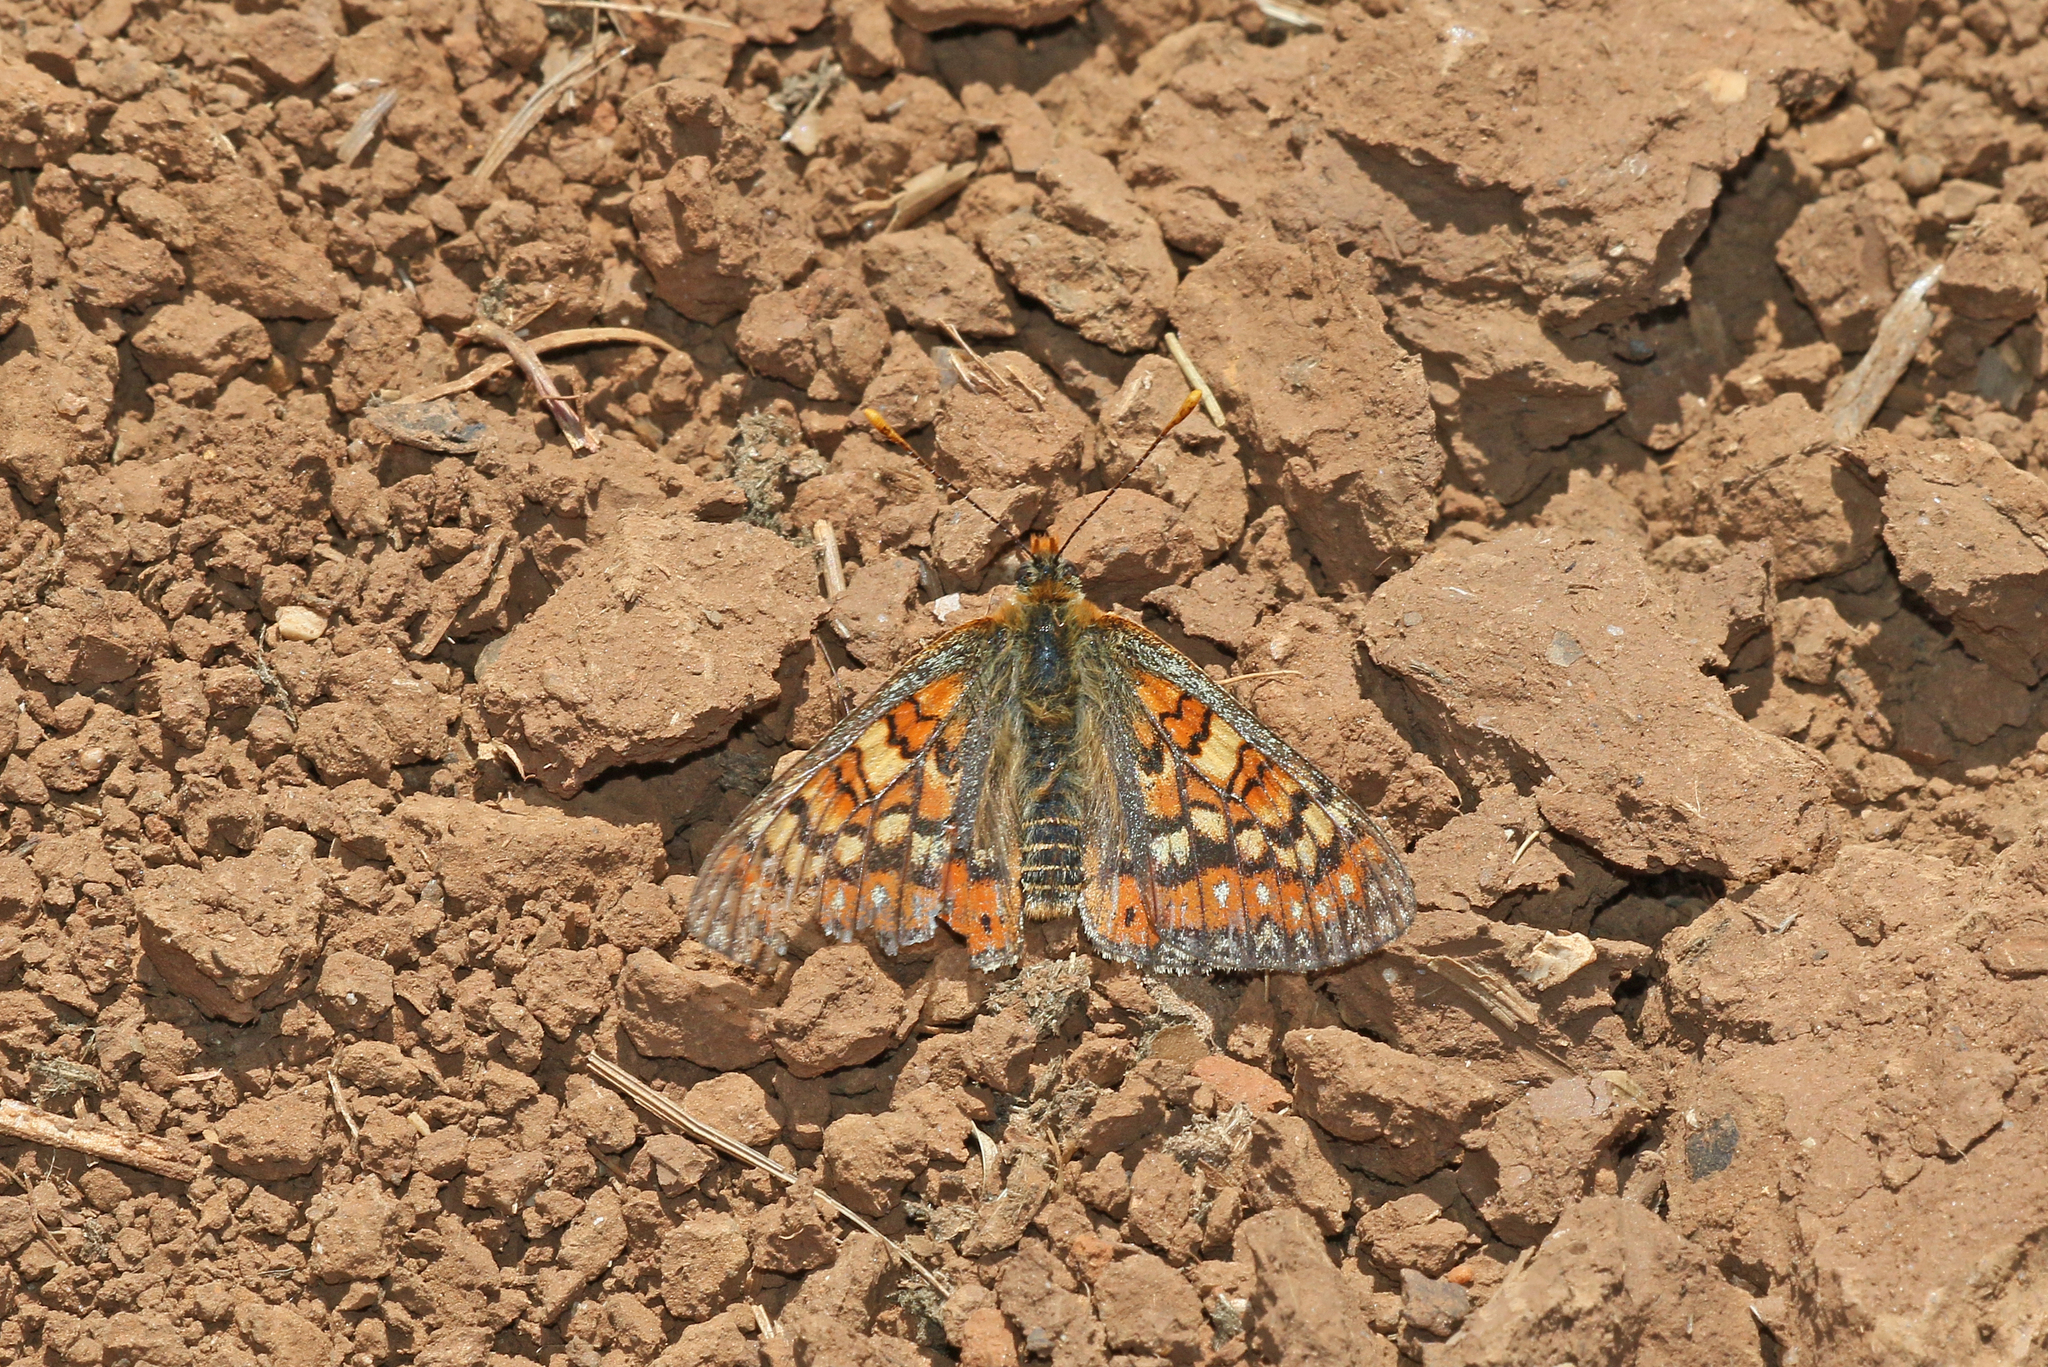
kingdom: Animalia
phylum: Arthropoda
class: Insecta
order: Lepidoptera
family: Nymphalidae
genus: Euphydryas
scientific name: Euphydryas desfontainii
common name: Spanish fritillary
